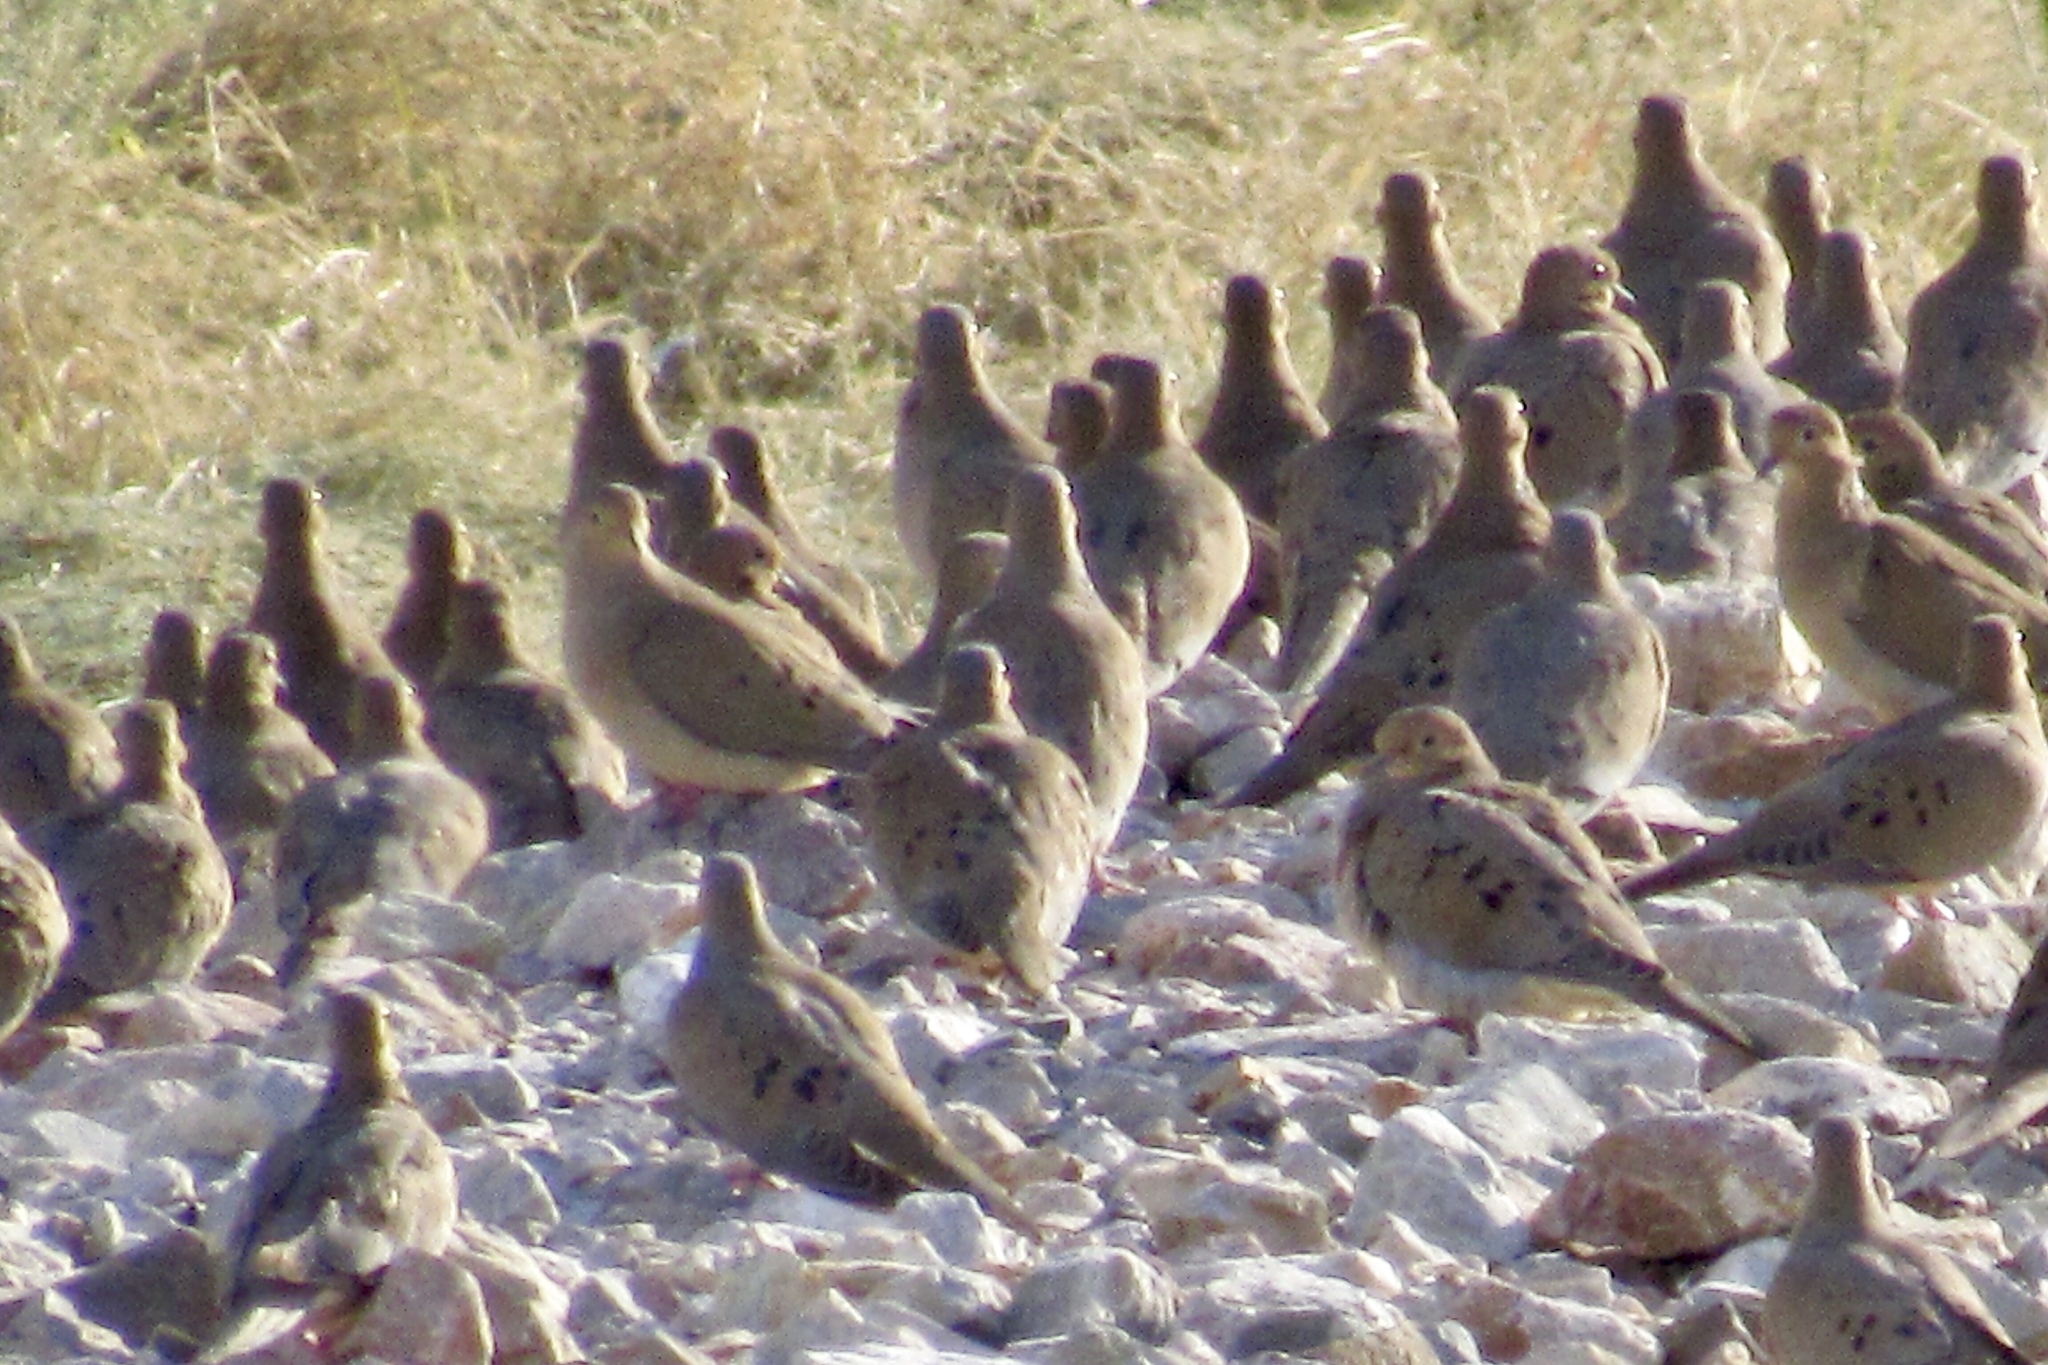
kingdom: Animalia
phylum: Chordata
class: Aves
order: Columbiformes
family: Columbidae
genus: Zenaida
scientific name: Zenaida macroura
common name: Mourning dove
